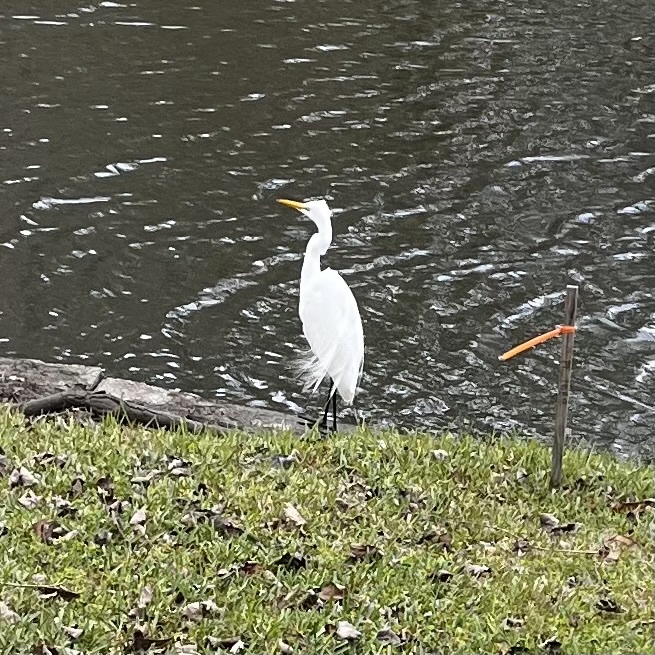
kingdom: Animalia
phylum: Chordata
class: Aves
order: Pelecaniformes
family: Ardeidae
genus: Ardea
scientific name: Ardea alba
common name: Great egret
